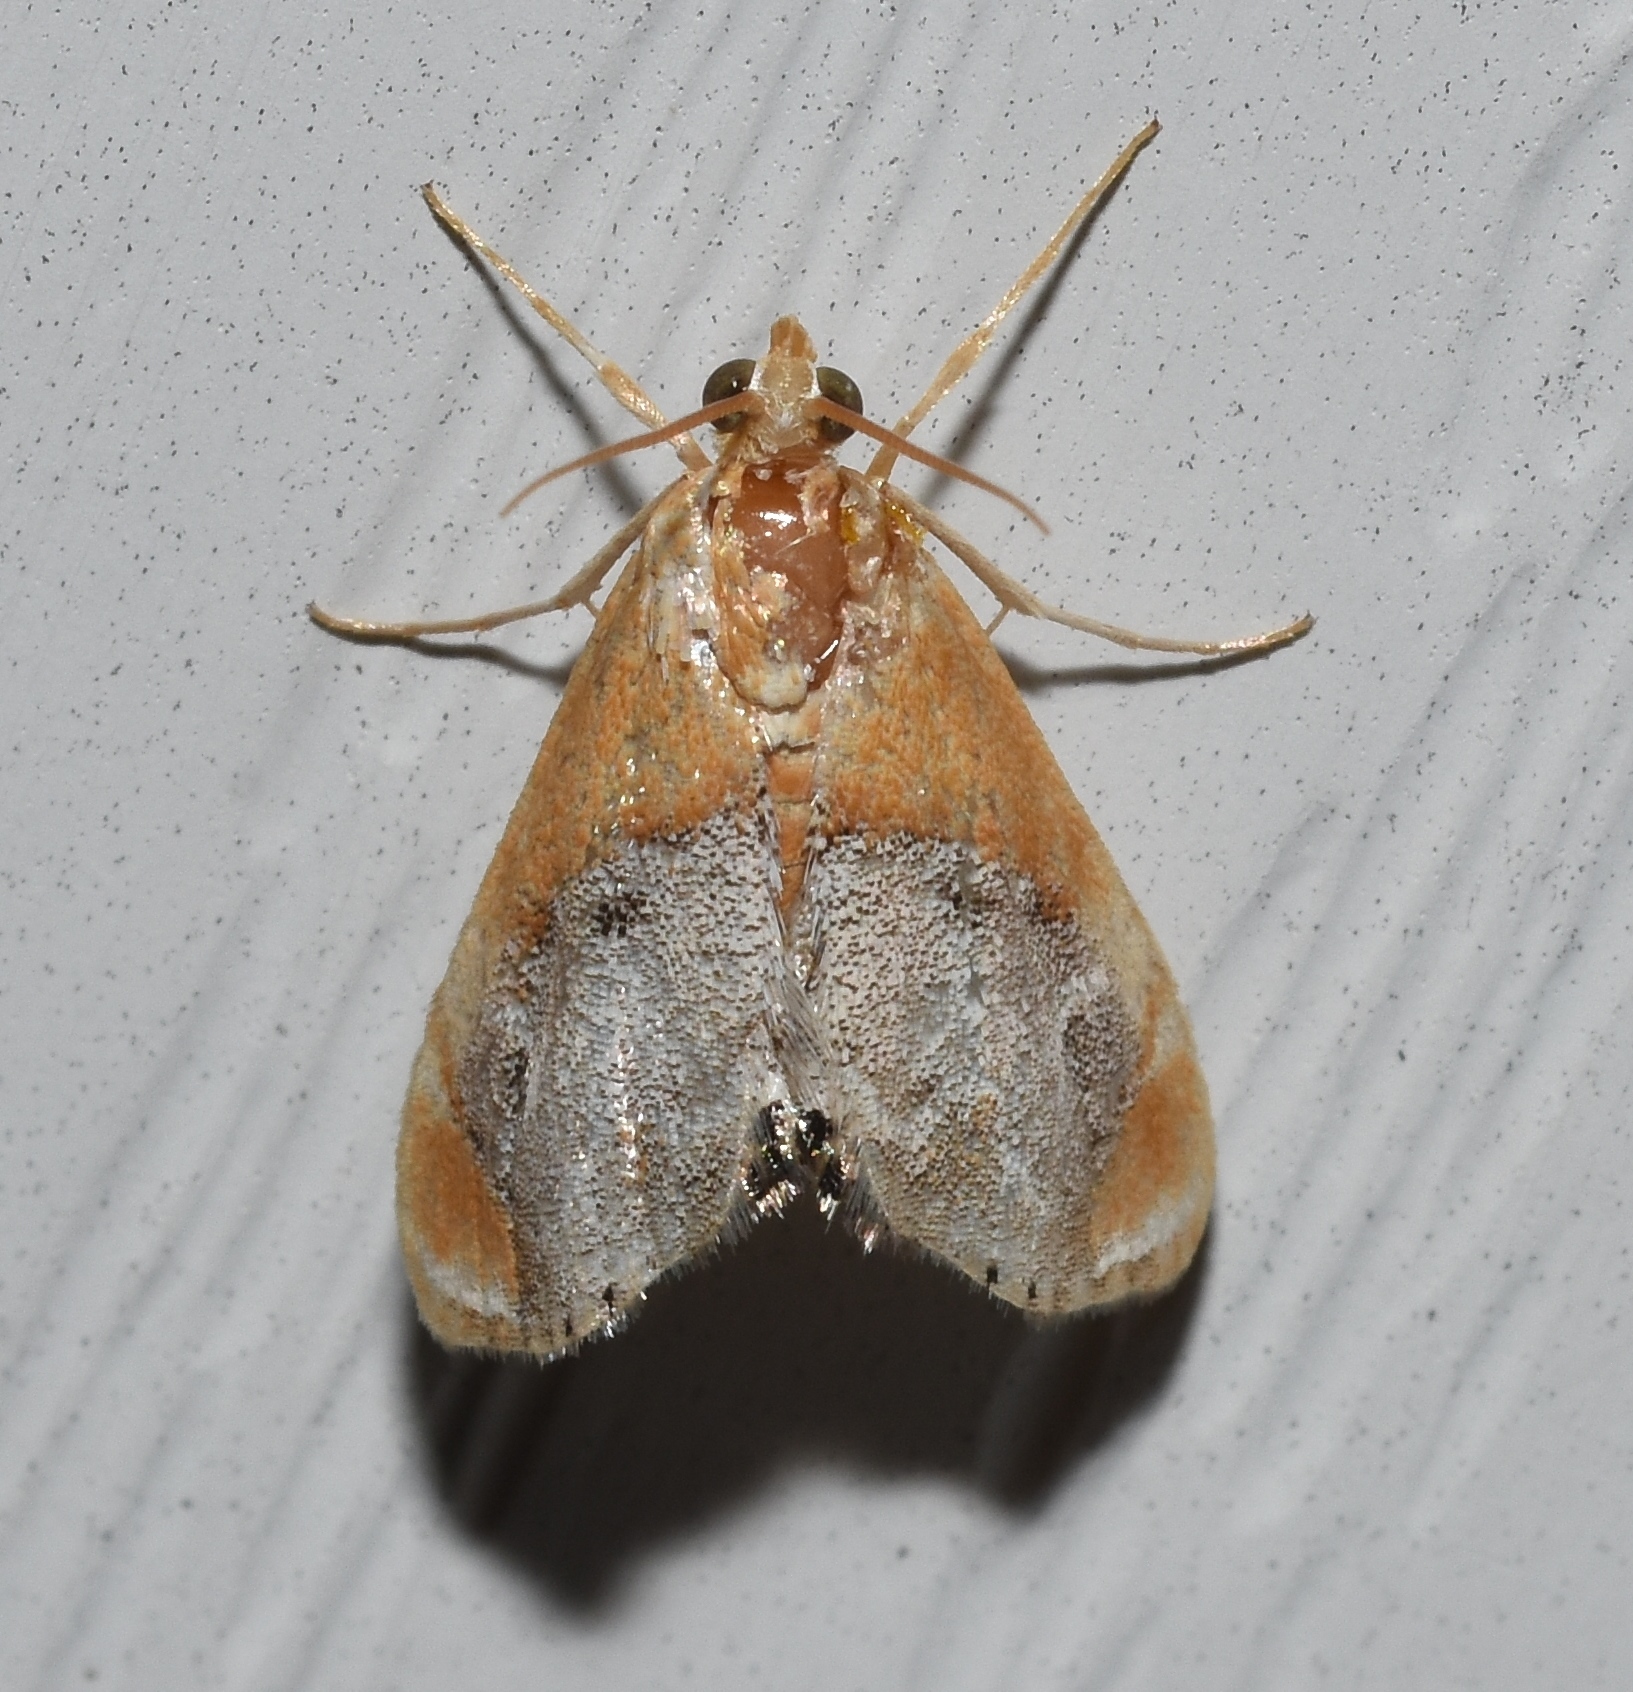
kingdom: Animalia
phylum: Arthropoda
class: Insecta
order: Lepidoptera
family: Crambidae
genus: Chalcoela
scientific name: Chalcoela iphitalis
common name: Sooty-winged chalcoela moth
